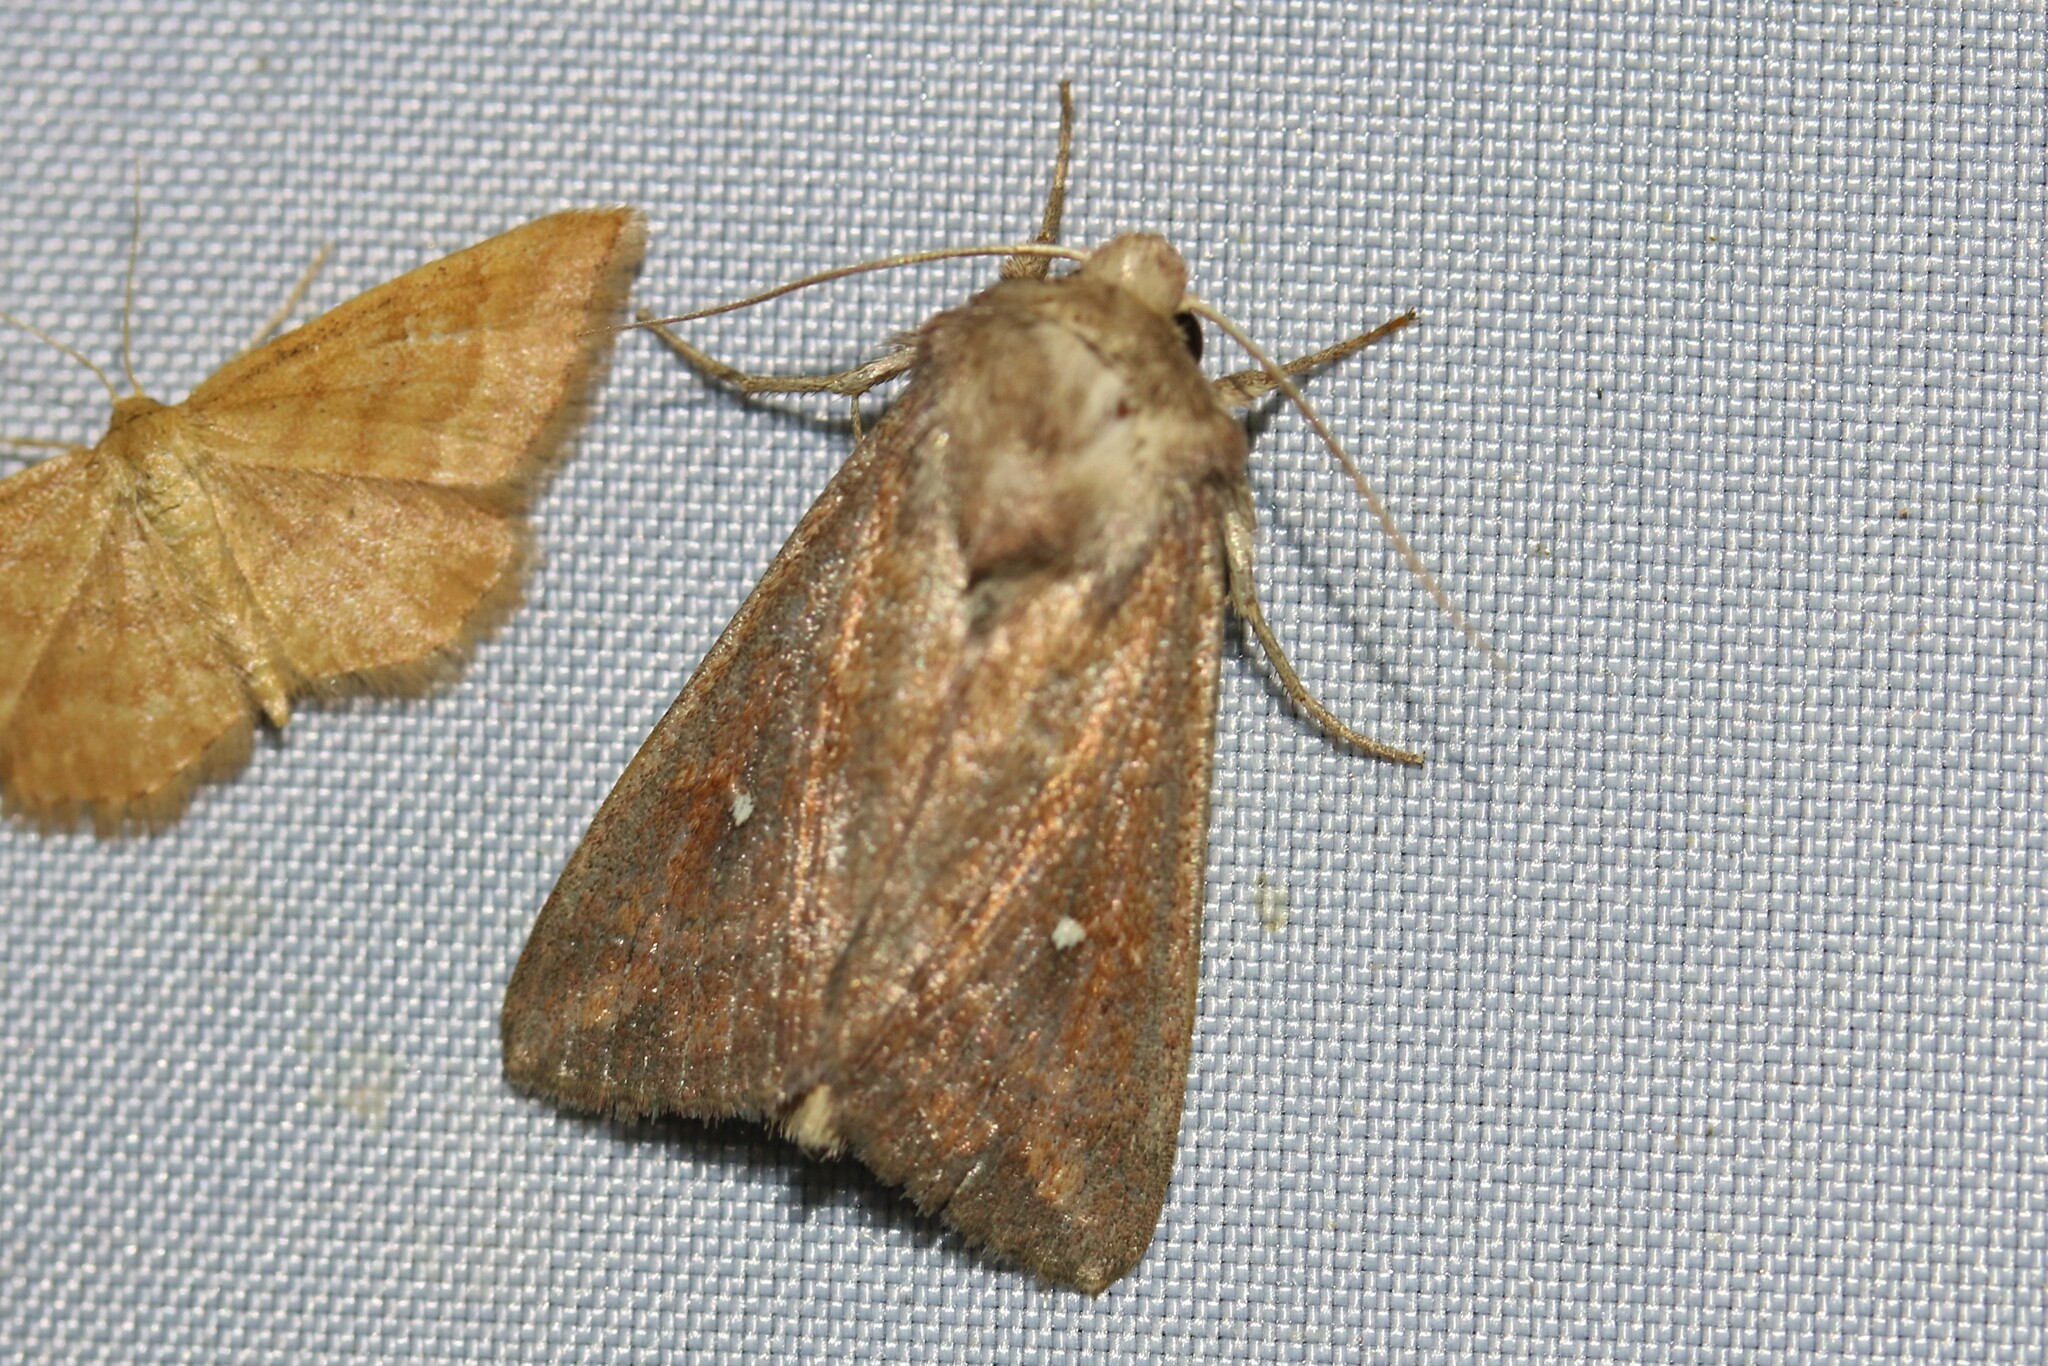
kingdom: Animalia
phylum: Arthropoda
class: Insecta
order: Lepidoptera
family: Noctuidae
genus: Mythimna
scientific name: Mythimna albipuncta
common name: White-point
